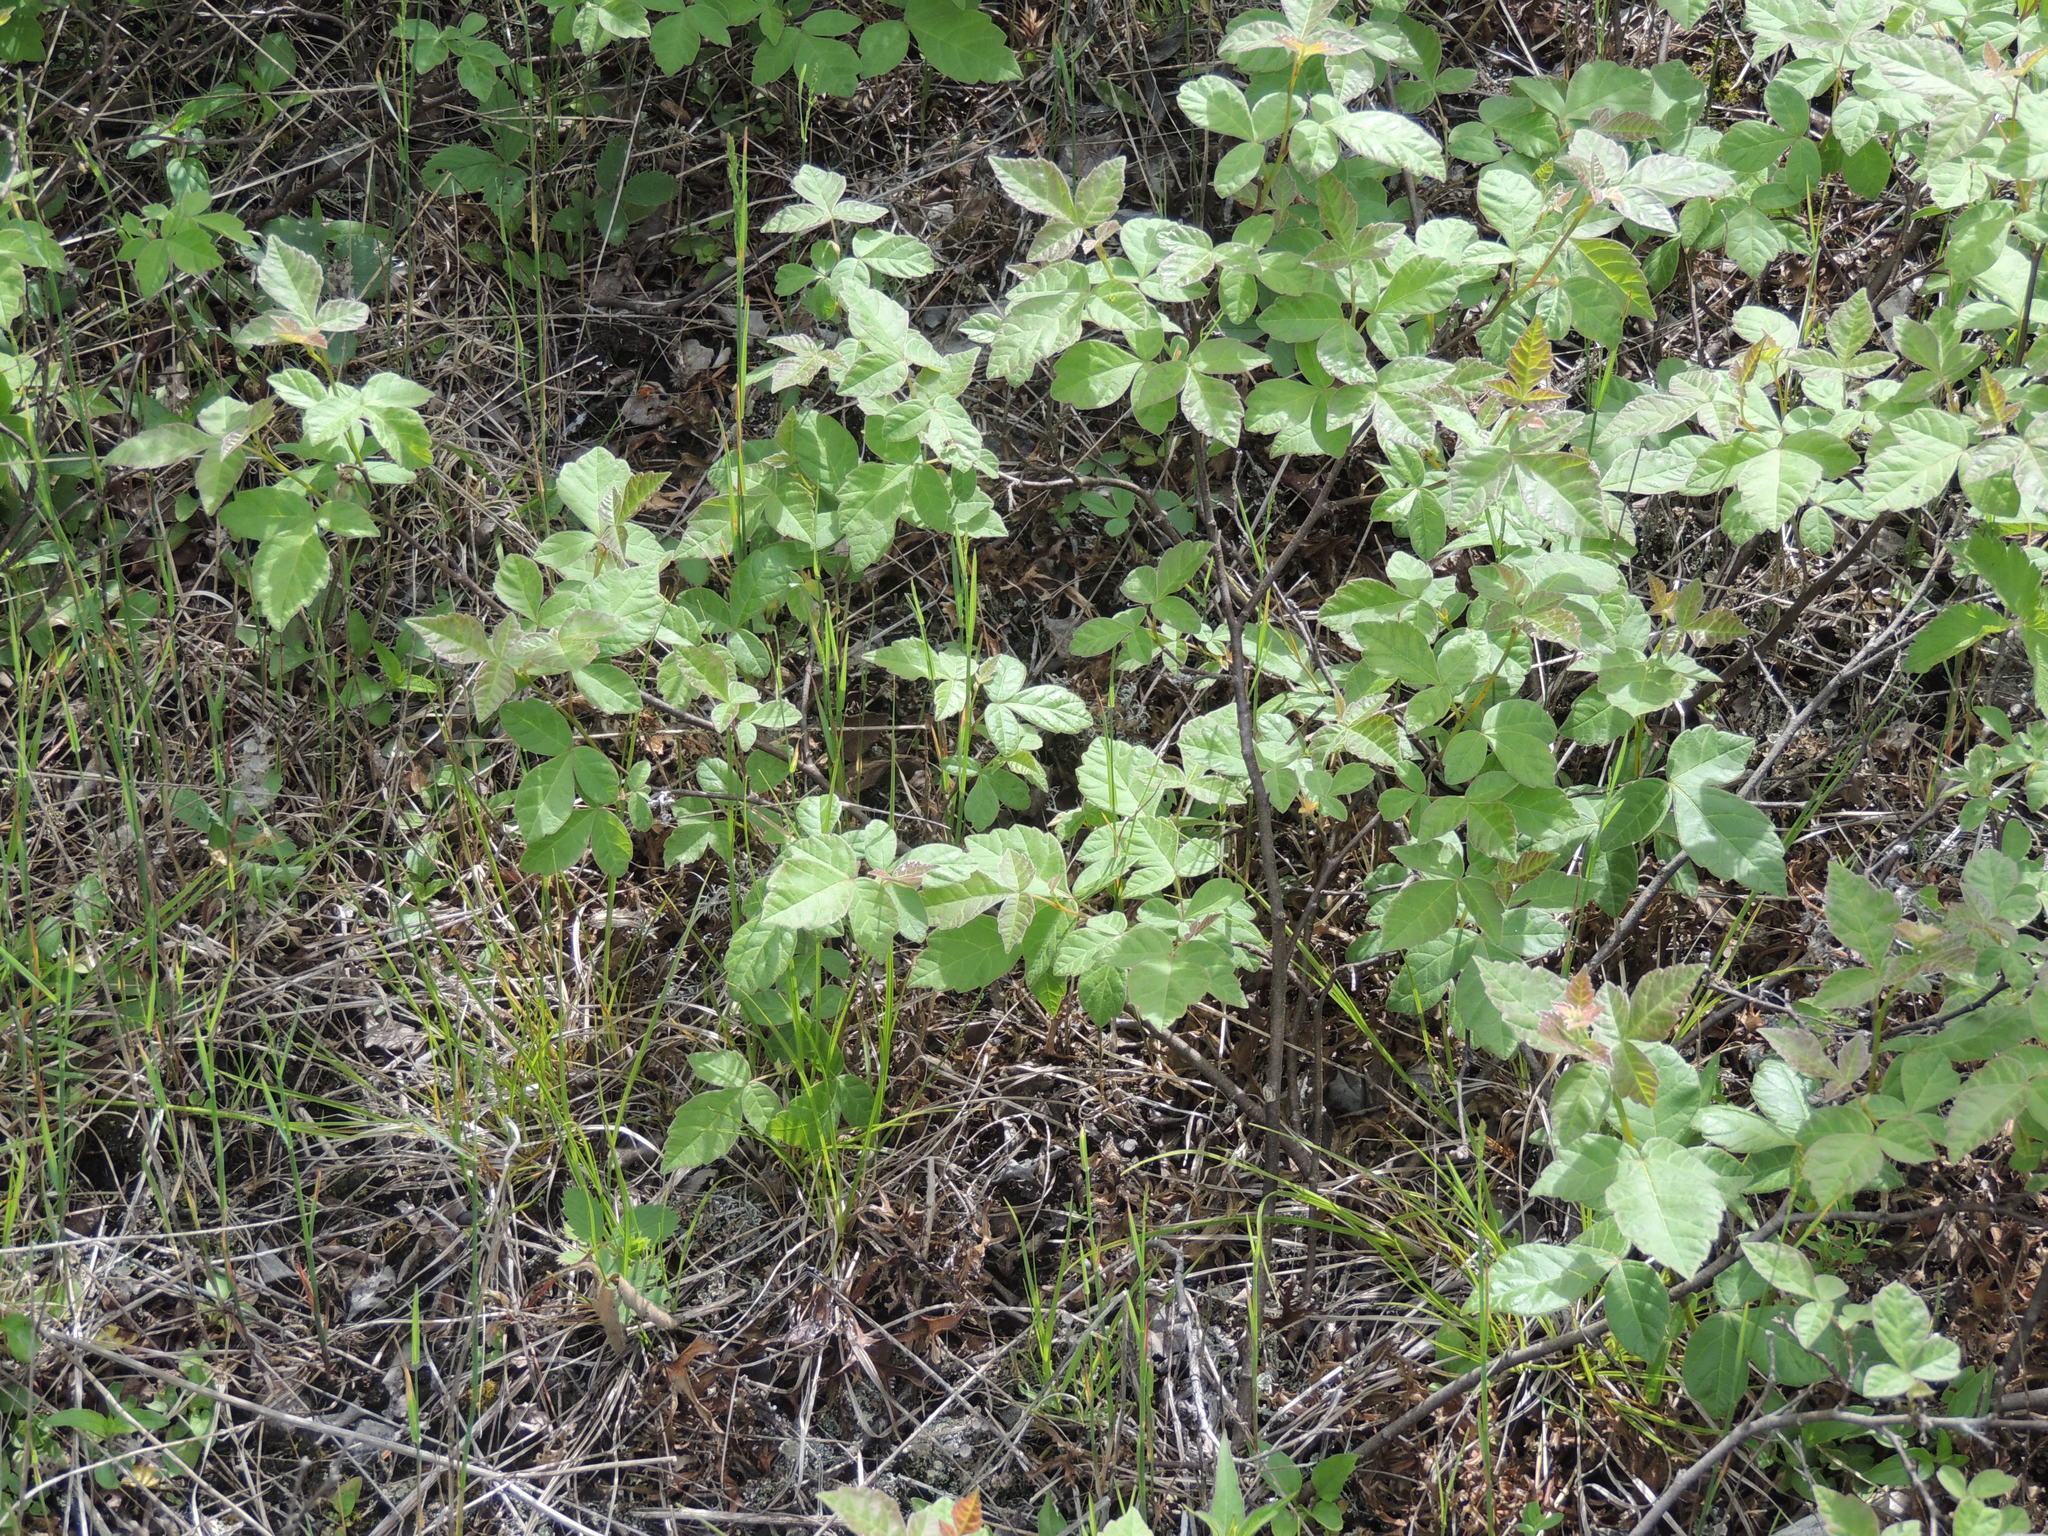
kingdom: Plantae
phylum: Tracheophyta
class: Magnoliopsida
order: Sapindales
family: Anacardiaceae
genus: Toxicodendron
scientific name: Toxicodendron rydbergii
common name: Rydberg's poison-ivy
